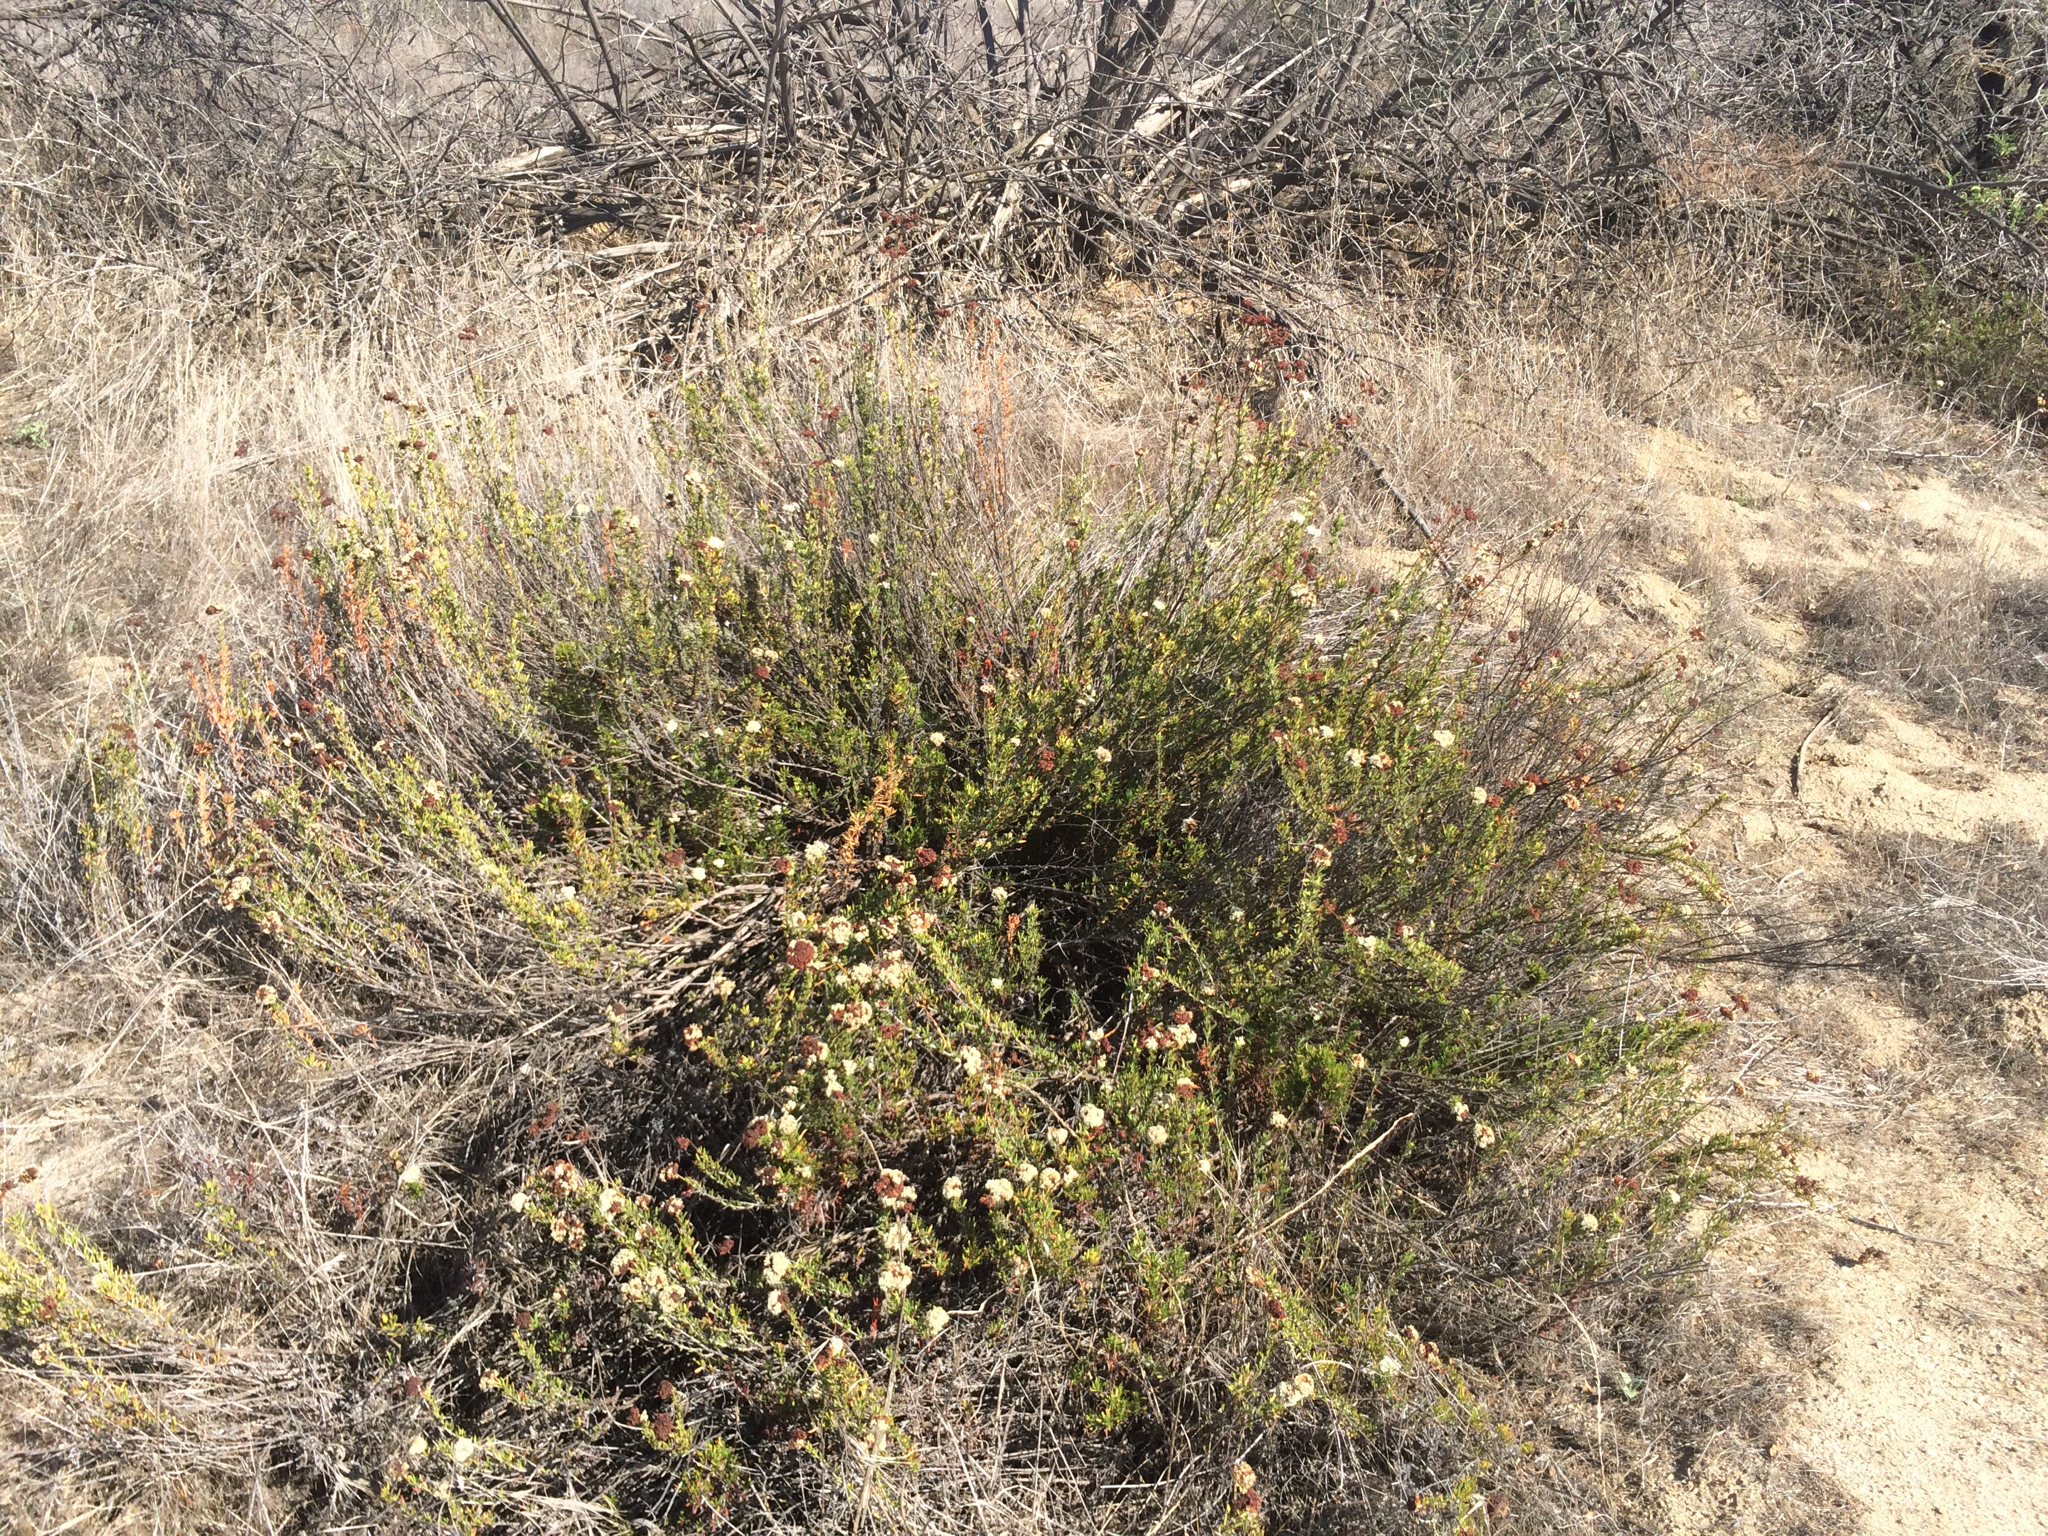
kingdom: Plantae
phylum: Tracheophyta
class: Magnoliopsida
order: Caryophyllales
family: Polygonaceae
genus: Eriogonum
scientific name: Eriogonum fasciculatum
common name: California wild buckwheat
